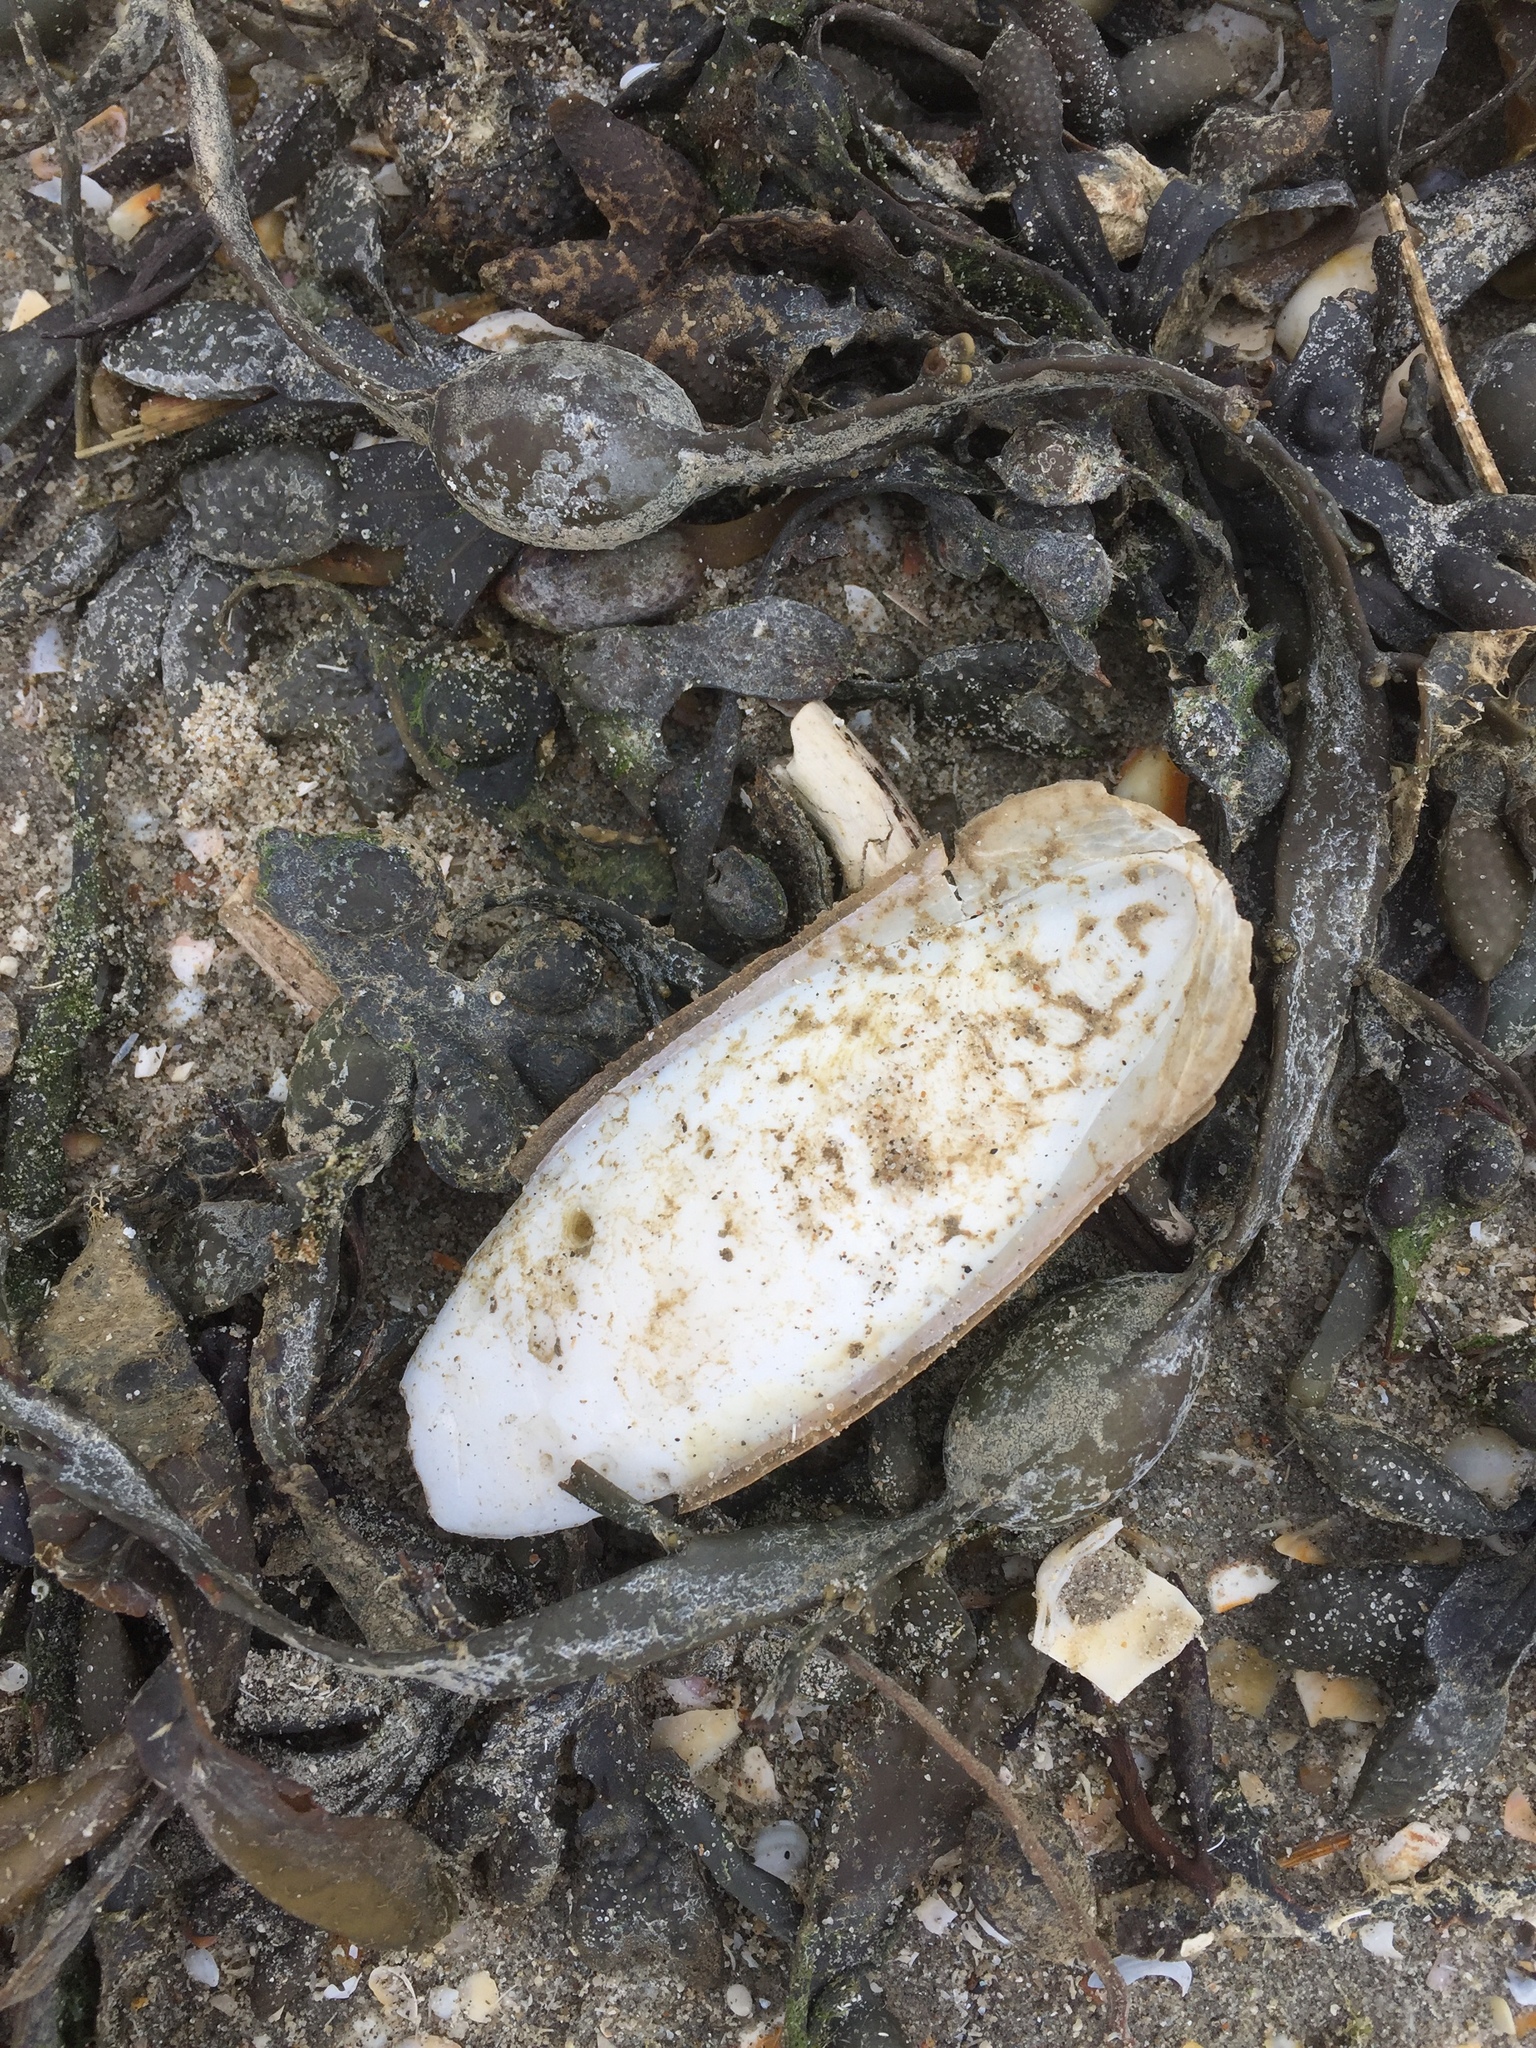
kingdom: Animalia
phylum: Mollusca
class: Cephalopoda
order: Sepiida
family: Sepiidae
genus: Sepia
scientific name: Sepia officinalis
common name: Common cuttlefish
